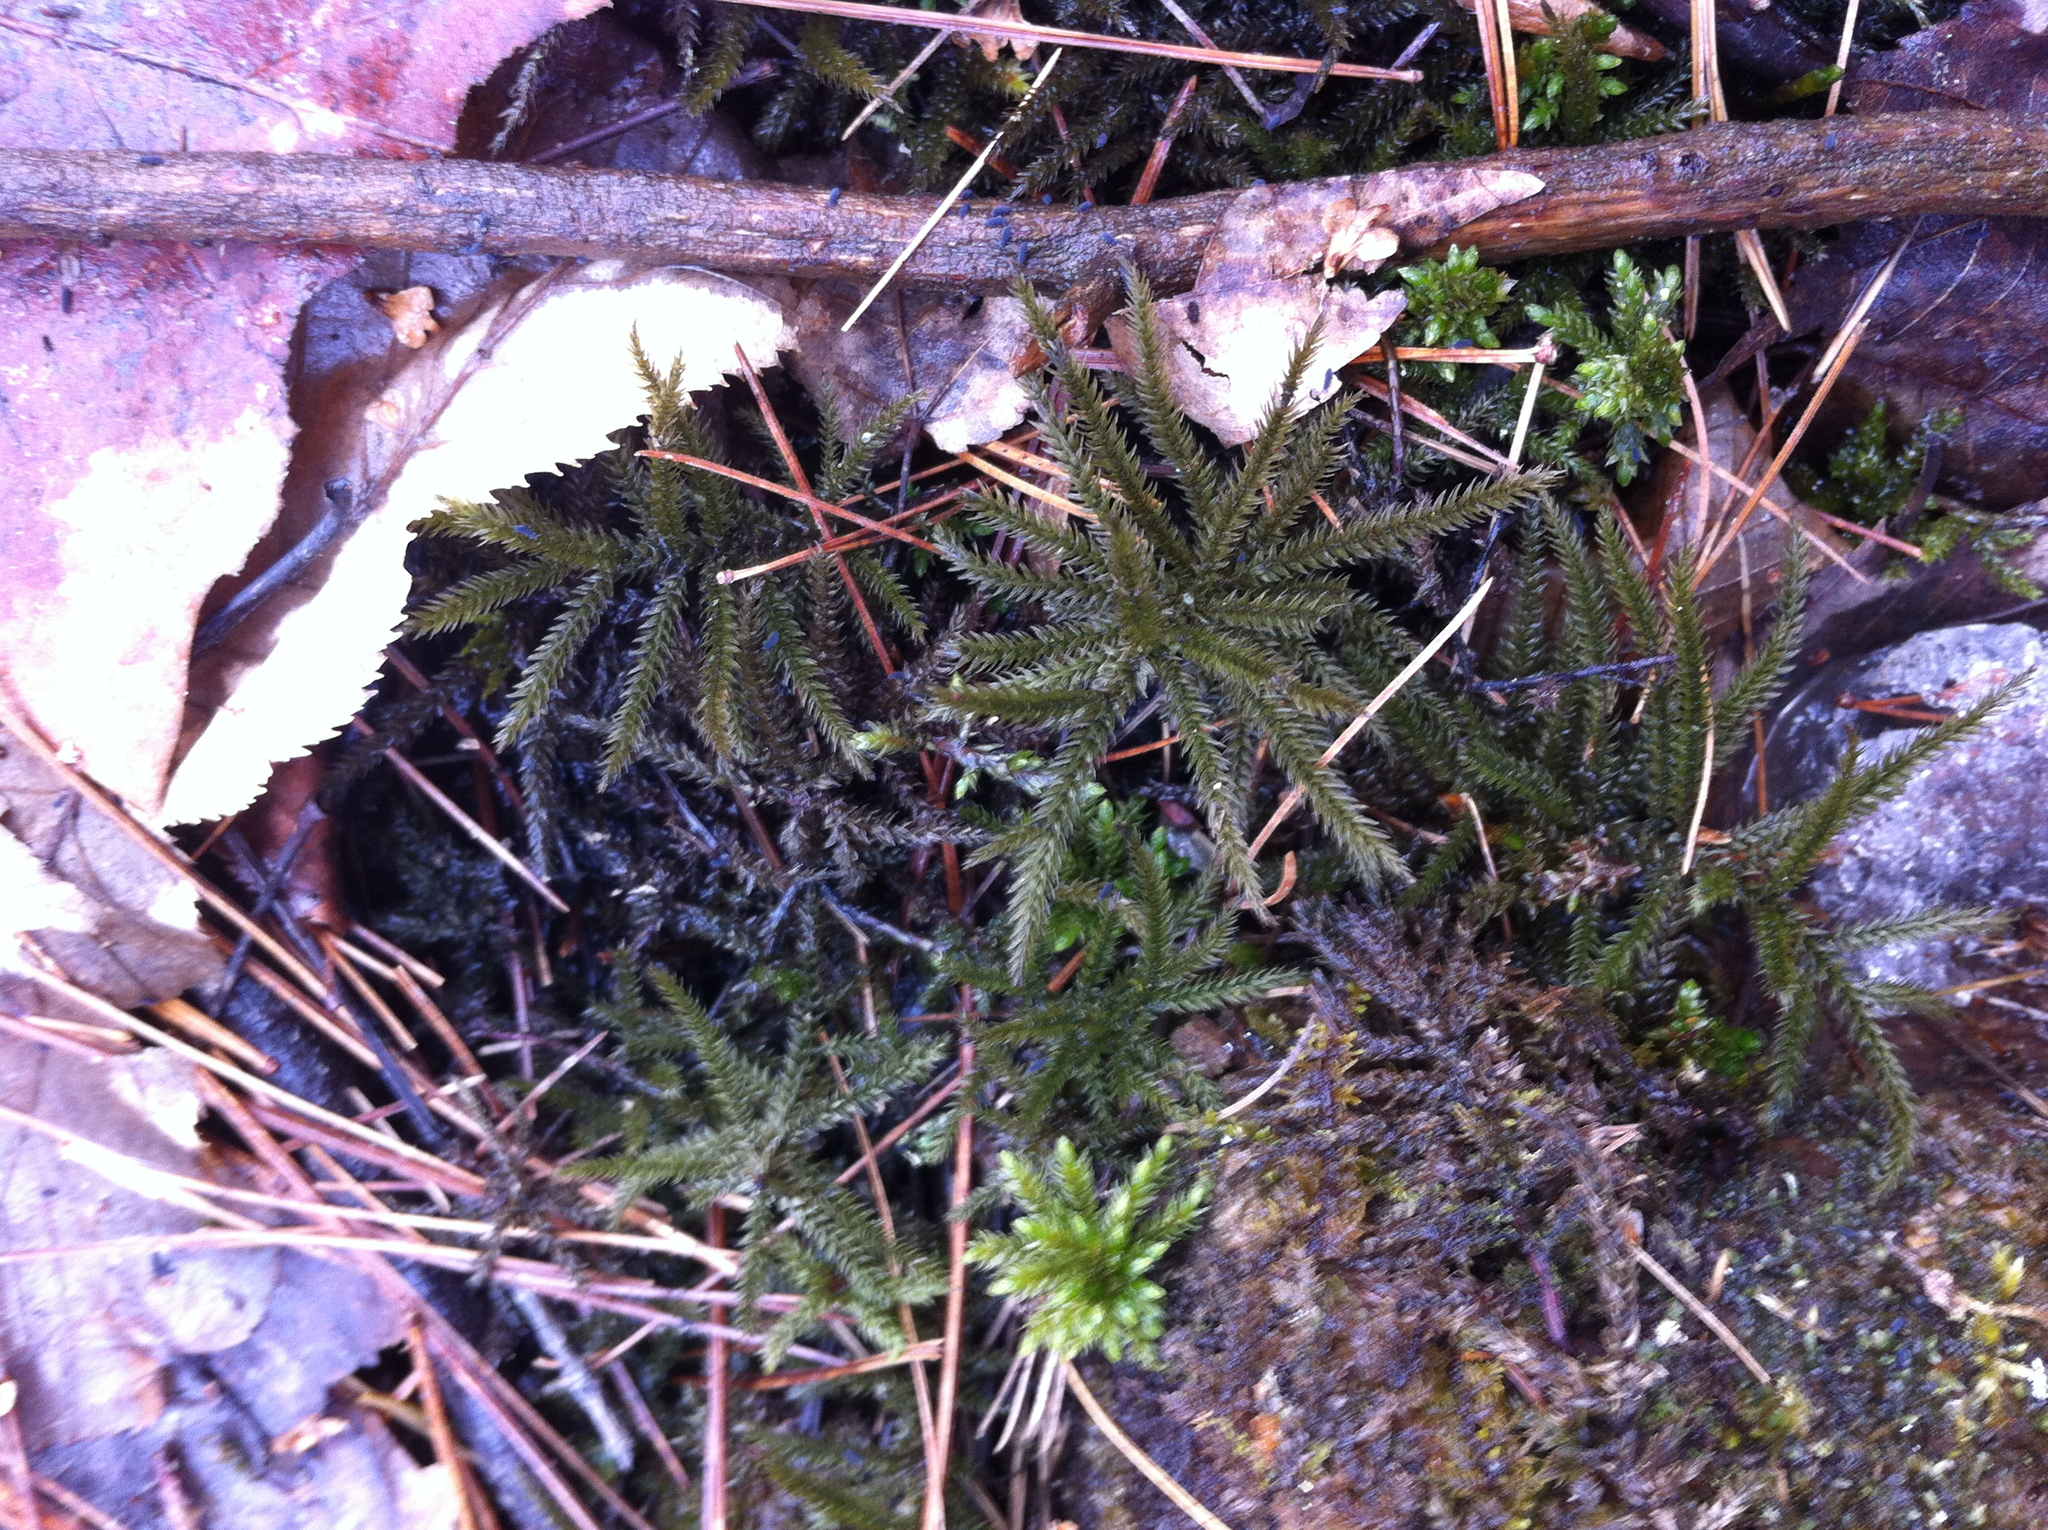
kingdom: Plantae
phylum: Bryophyta
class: Bryopsida
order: Hypnales
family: Climaciaceae
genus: Climacium
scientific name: Climacium americanum
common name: American tree moss
